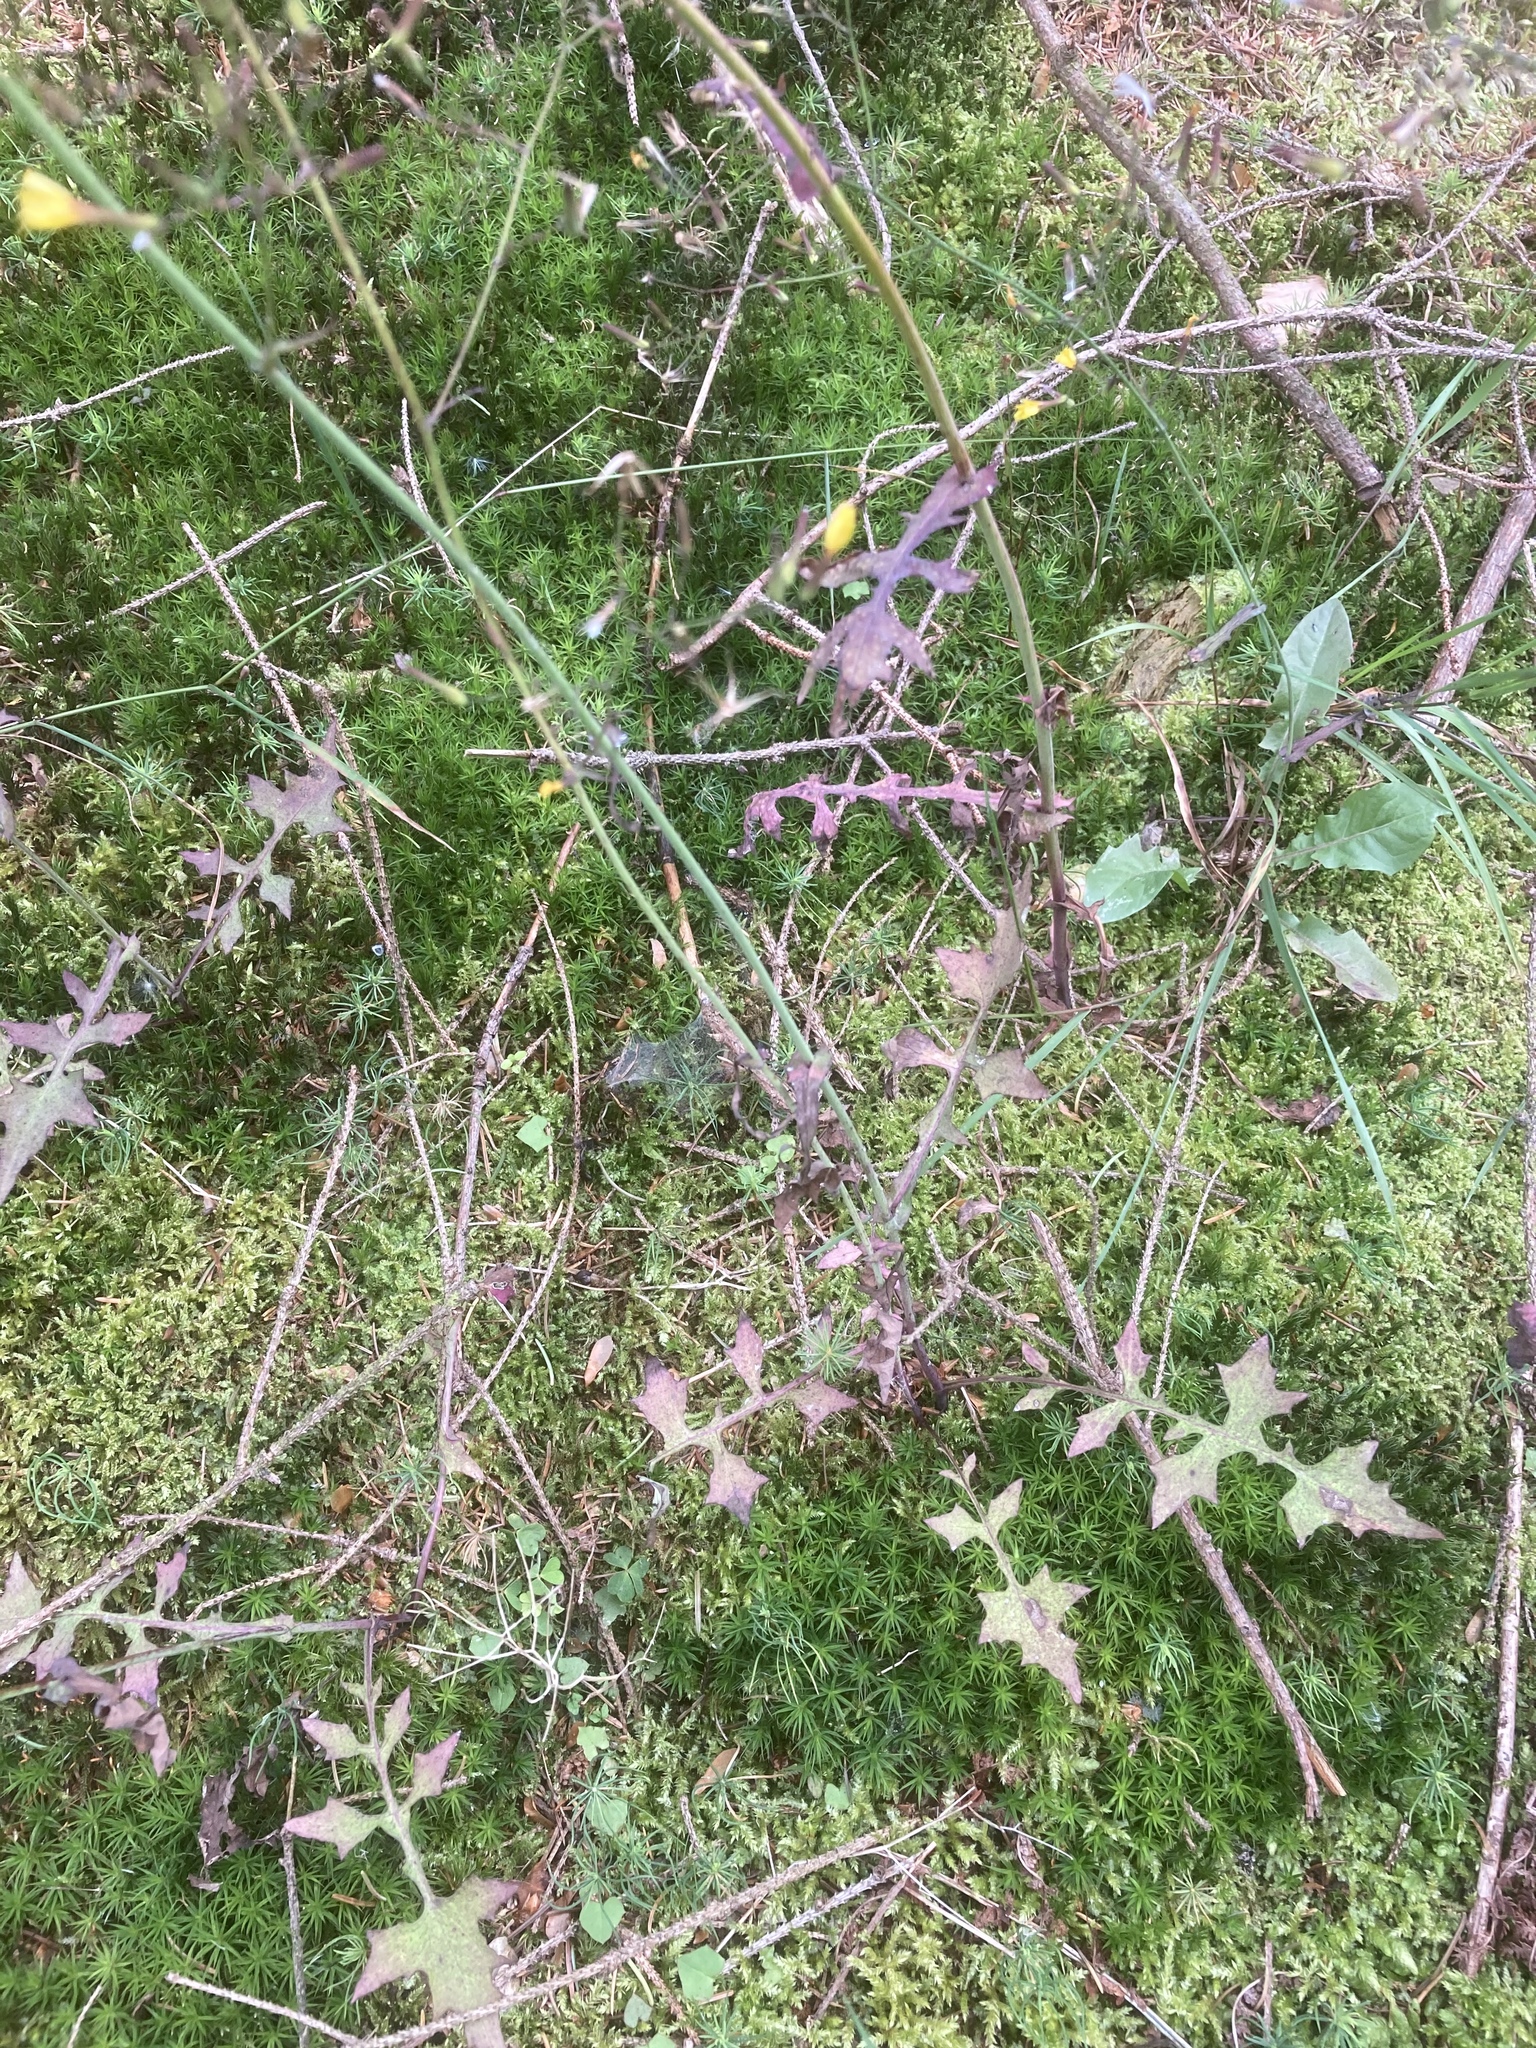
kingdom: Plantae
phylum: Tracheophyta
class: Magnoliopsida
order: Asterales
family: Asteraceae
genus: Mycelis
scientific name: Mycelis muralis
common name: Wall lettuce
